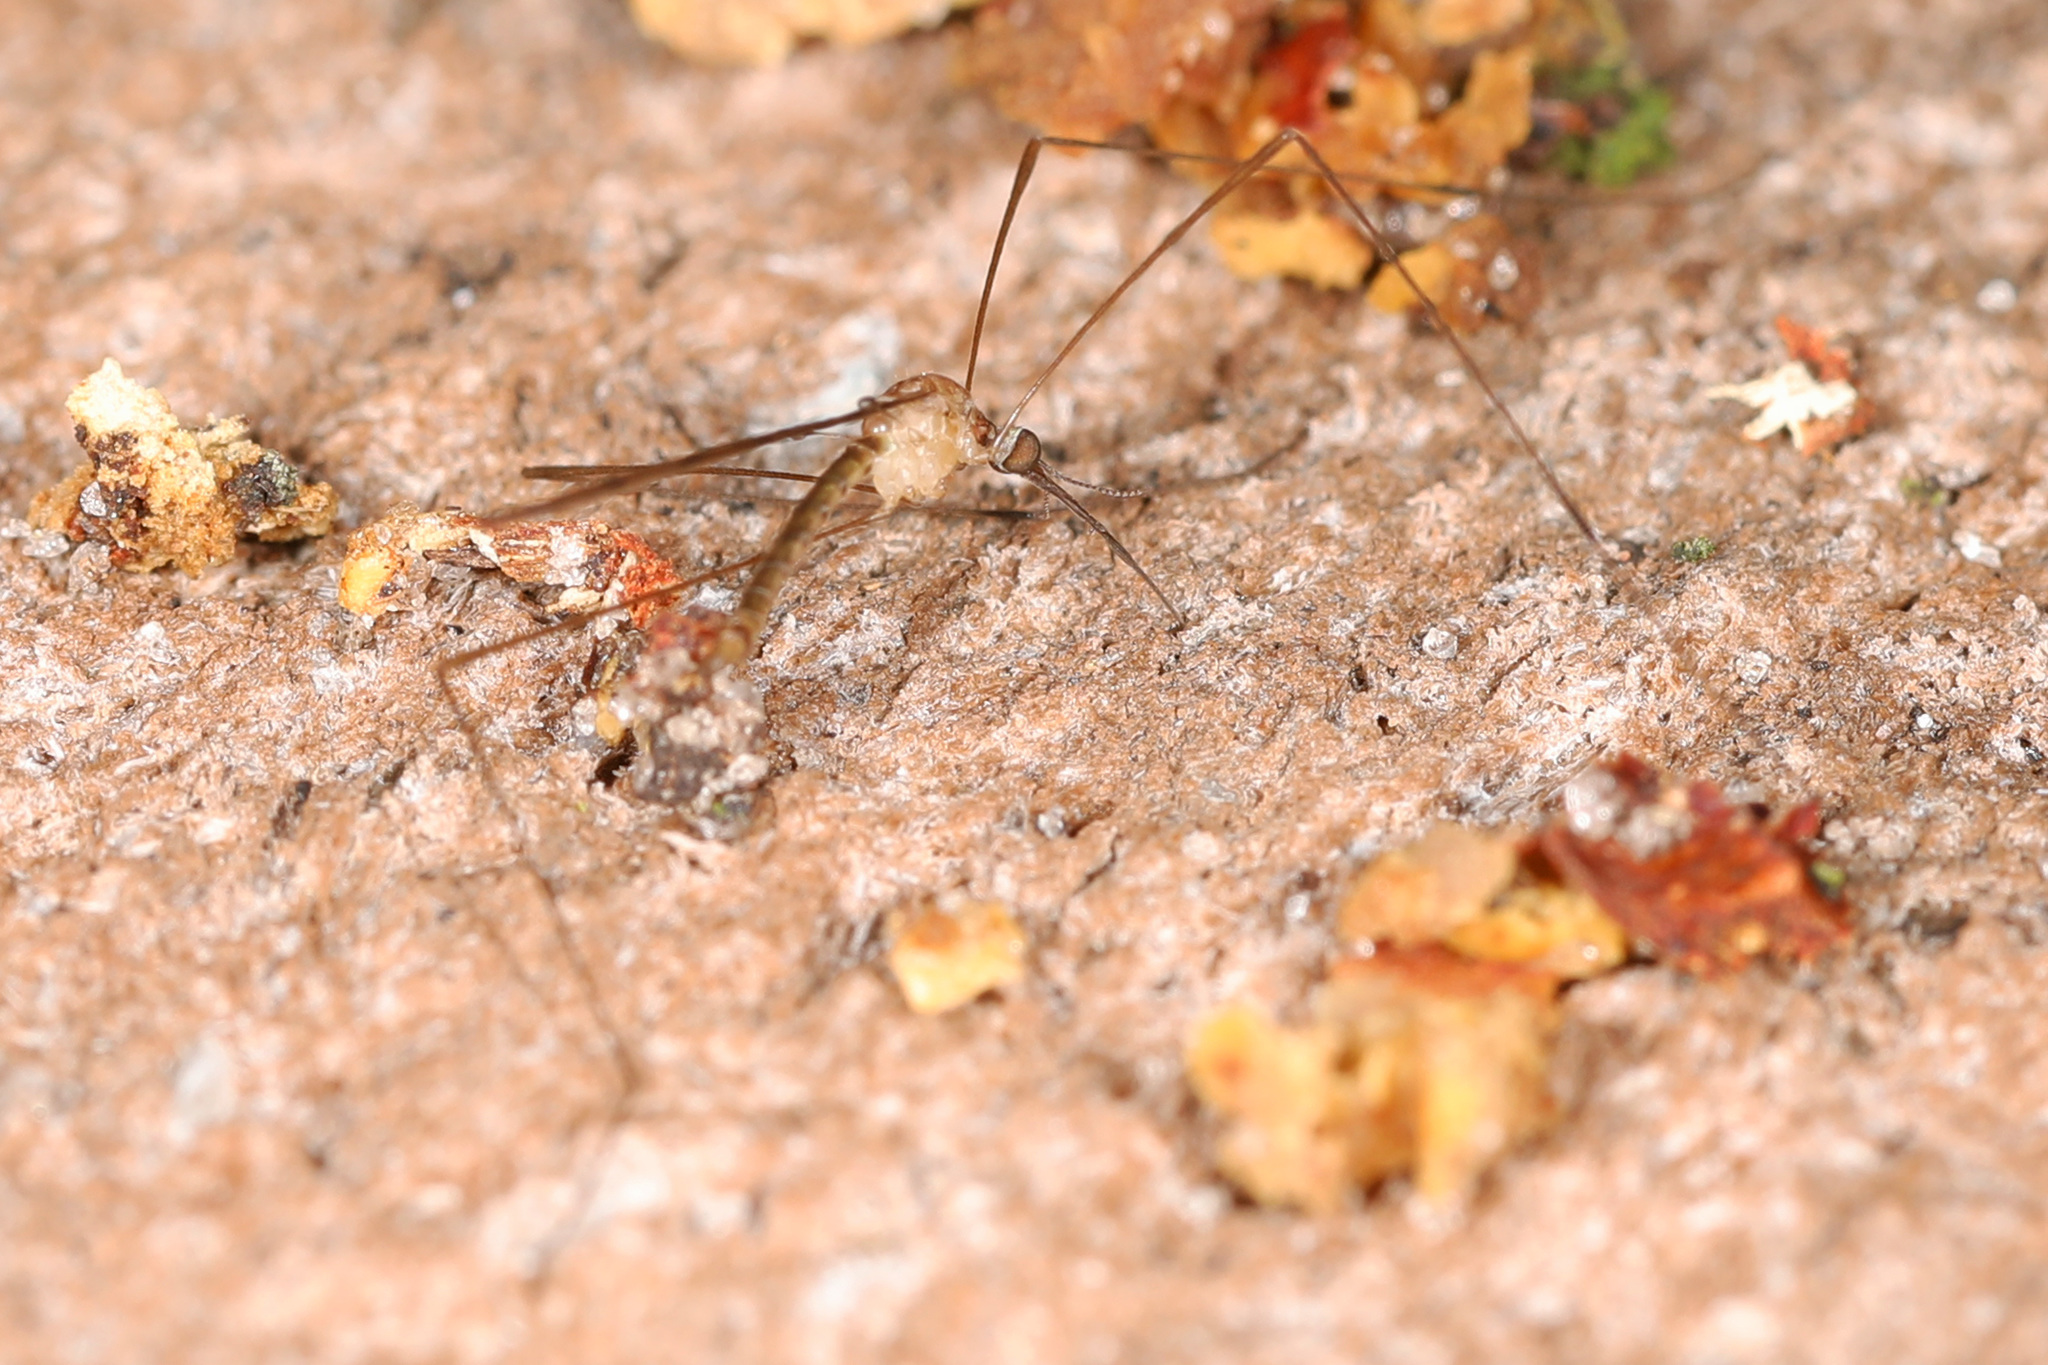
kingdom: Animalia
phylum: Arthropoda
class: Insecta
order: Diptera
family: Limoniidae
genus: Geranomyia
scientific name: Geranomyia rostrata
